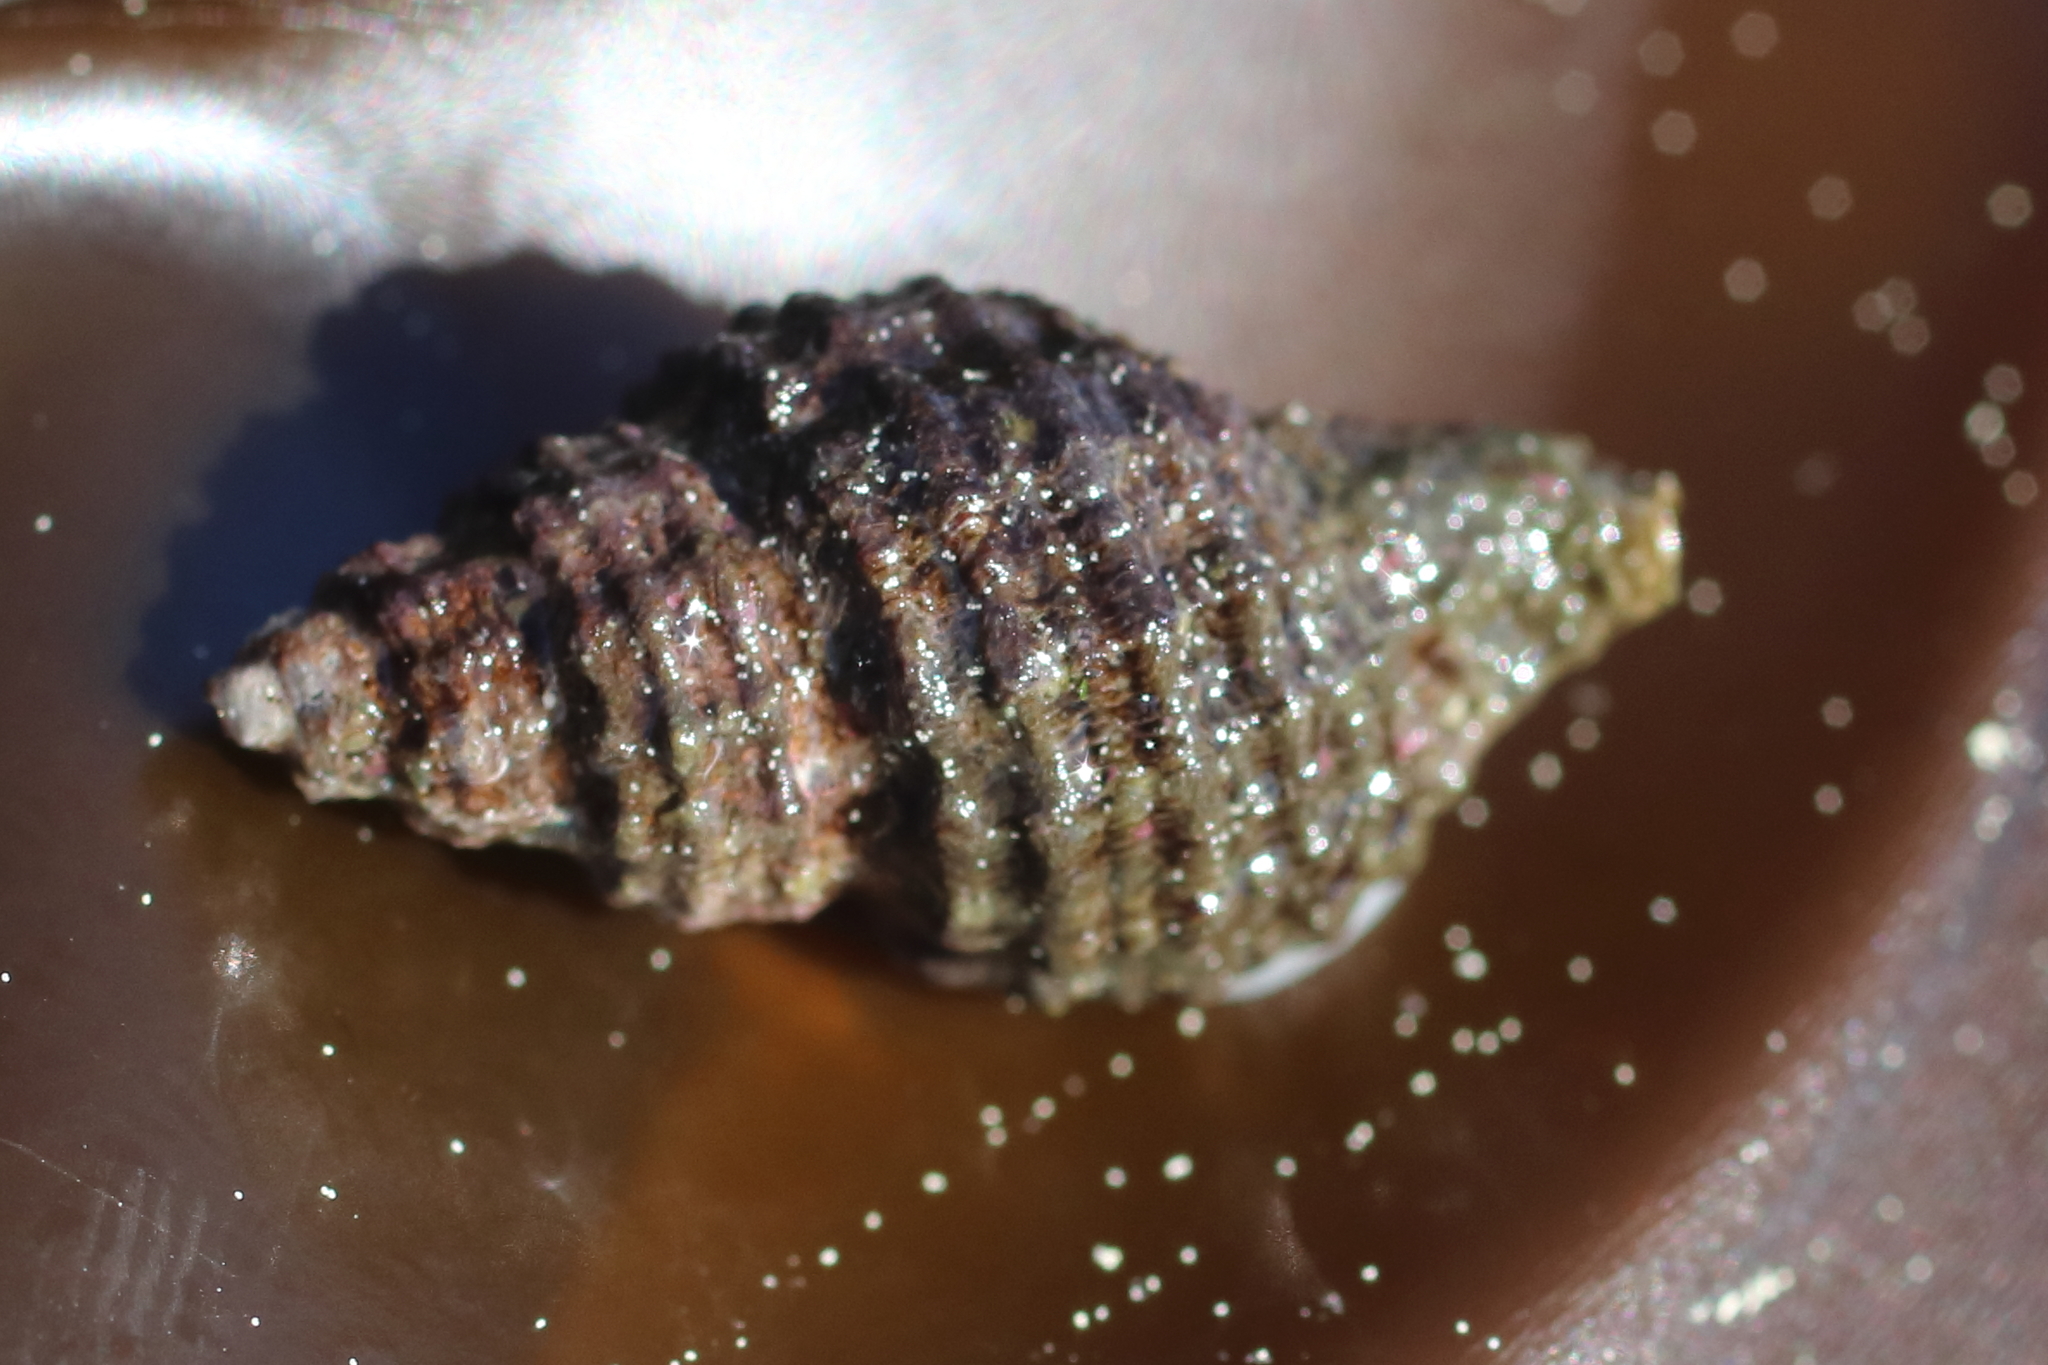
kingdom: Animalia
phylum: Mollusca
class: Gastropoda
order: Neogastropoda
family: Muricidae
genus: Paciocinebrina
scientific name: Paciocinebrina interfossa
